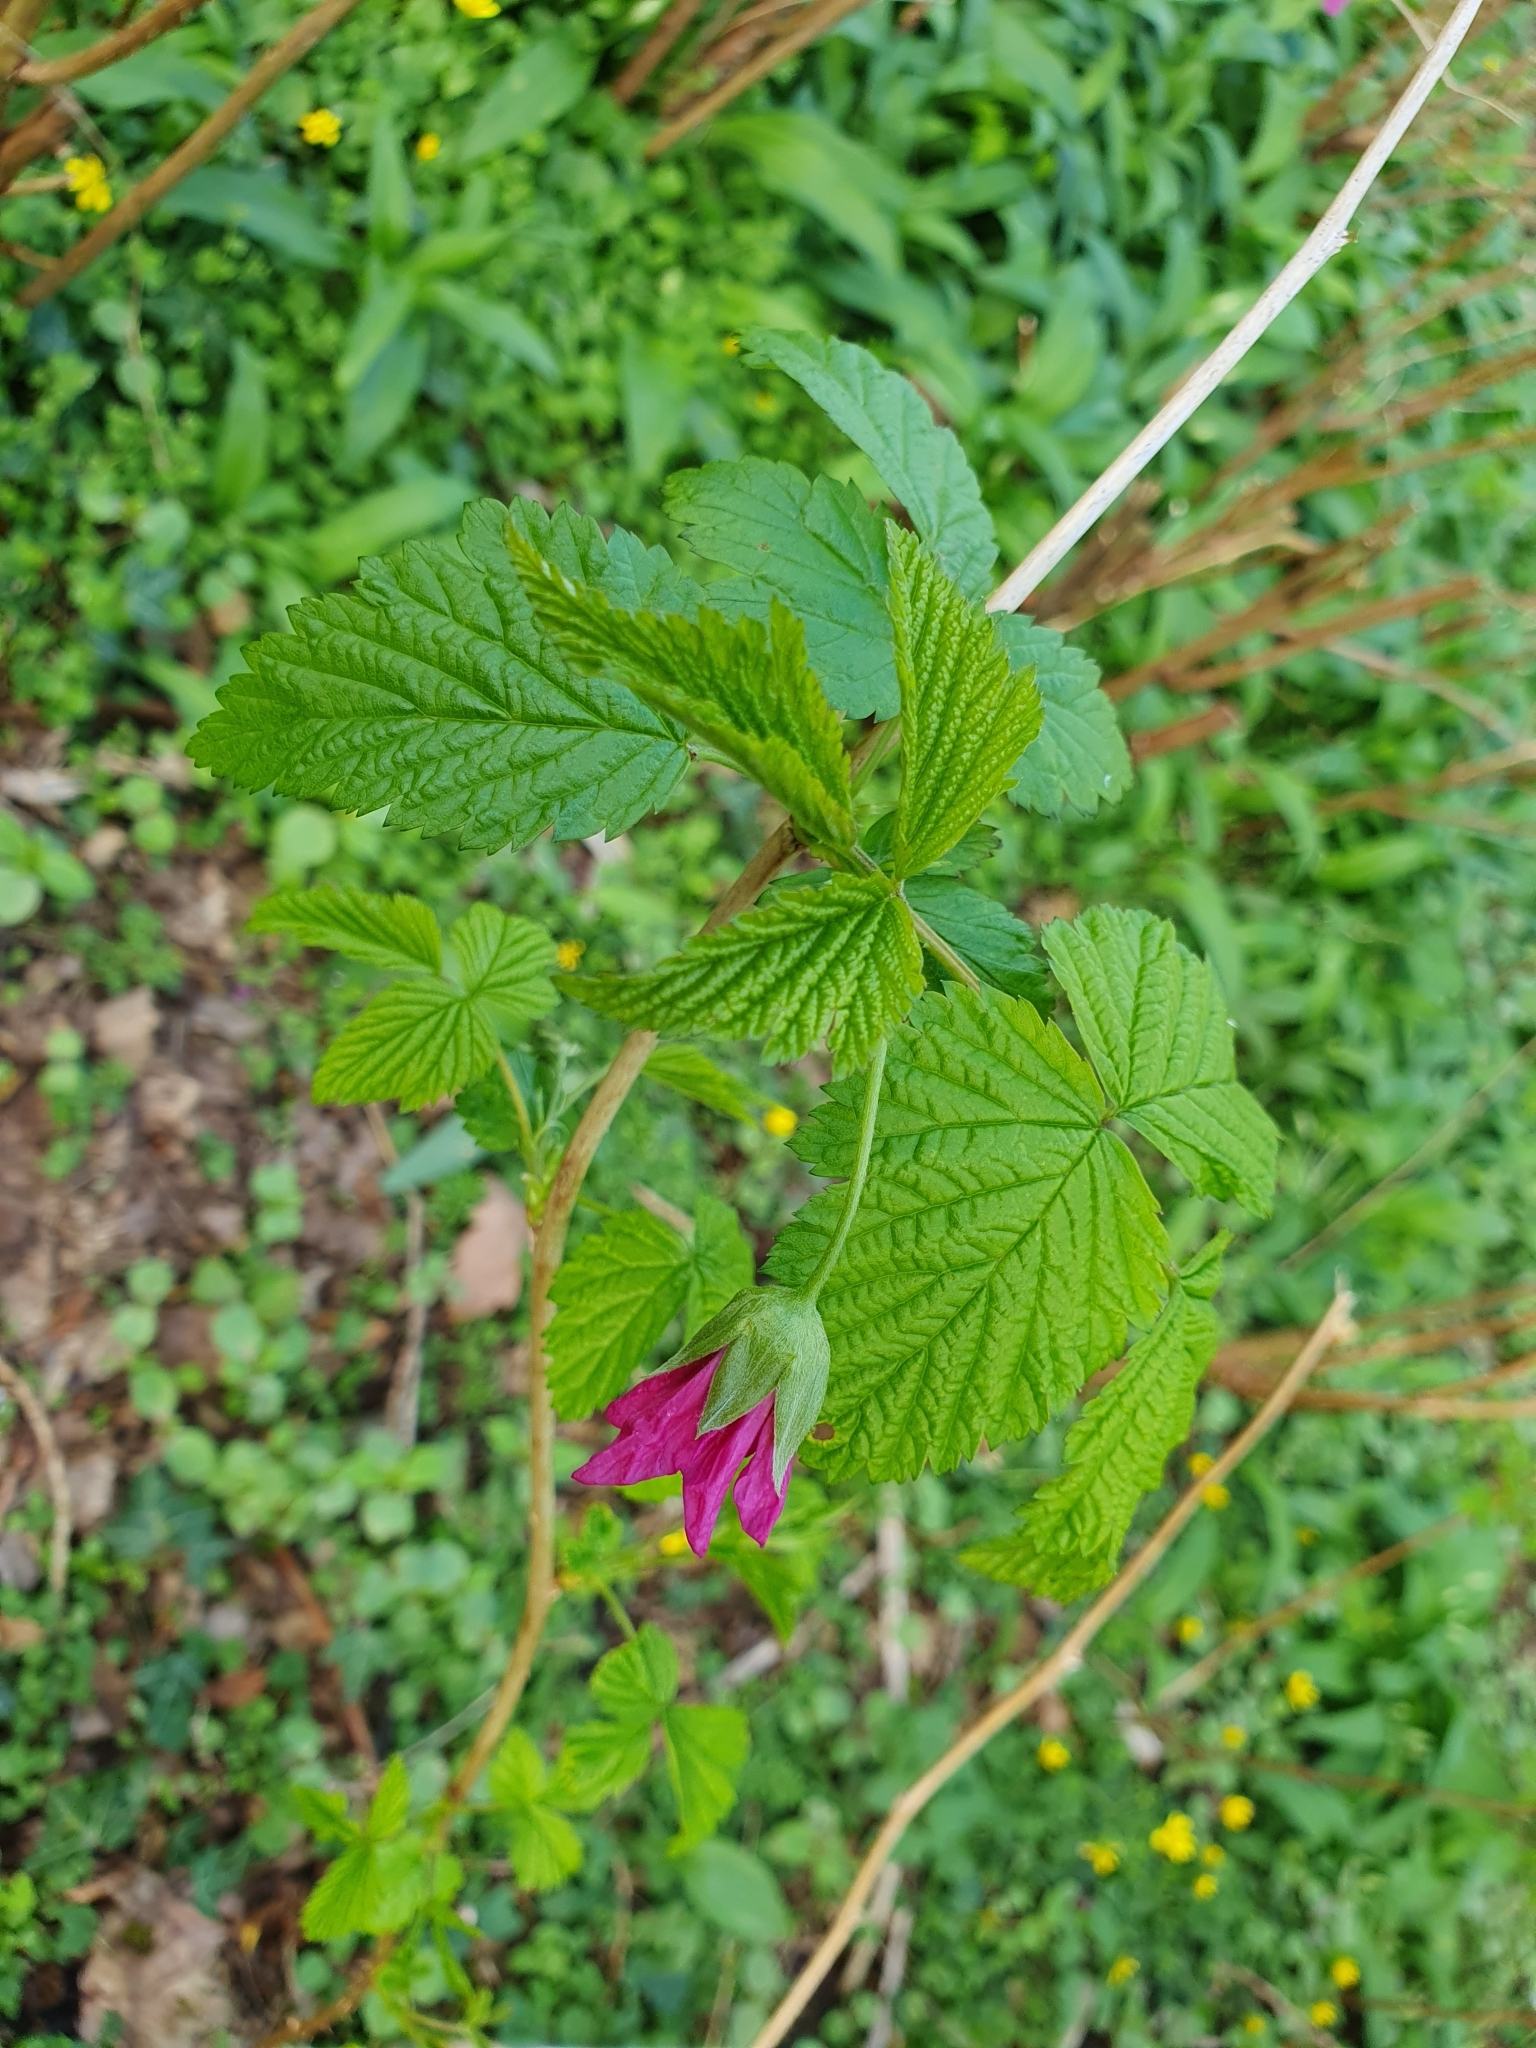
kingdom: Plantae
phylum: Tracheophyta
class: Magnoliopsida
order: Rosales
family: Rosaceae
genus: Rubus
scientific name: Rubus spectabilis
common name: Salmonberry
